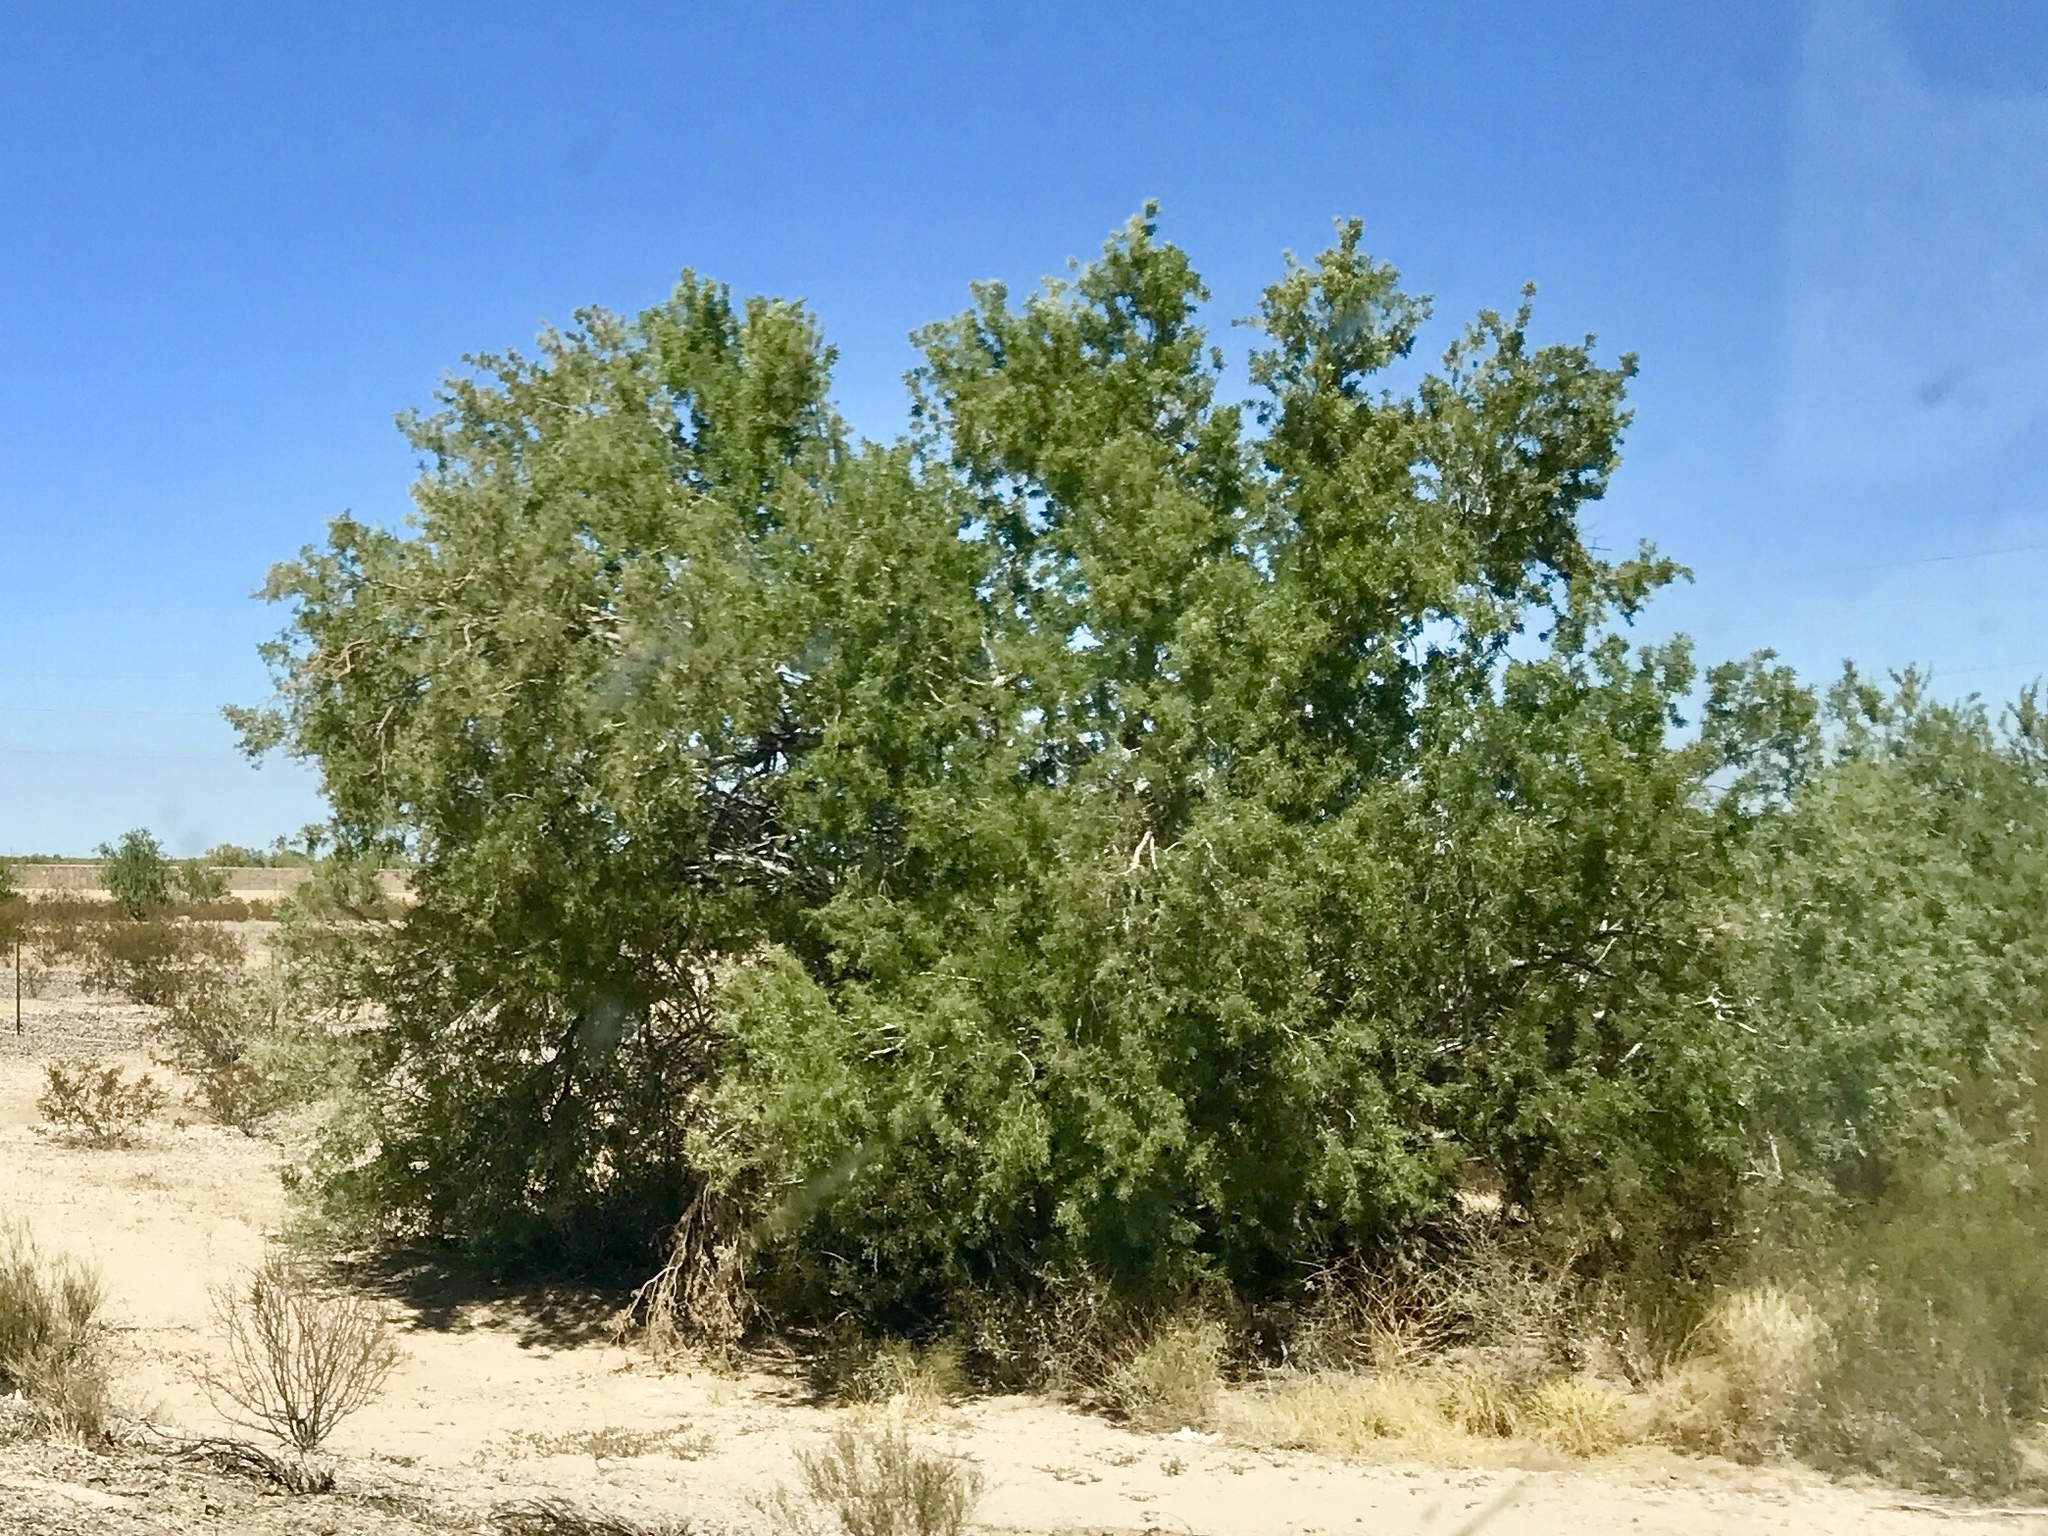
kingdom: Plantae
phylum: Tracheophyta
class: Magnoliopsida
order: Fabales
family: Fabaceae
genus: Olneya
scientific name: Olneya tesota
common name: Desert ironwood
